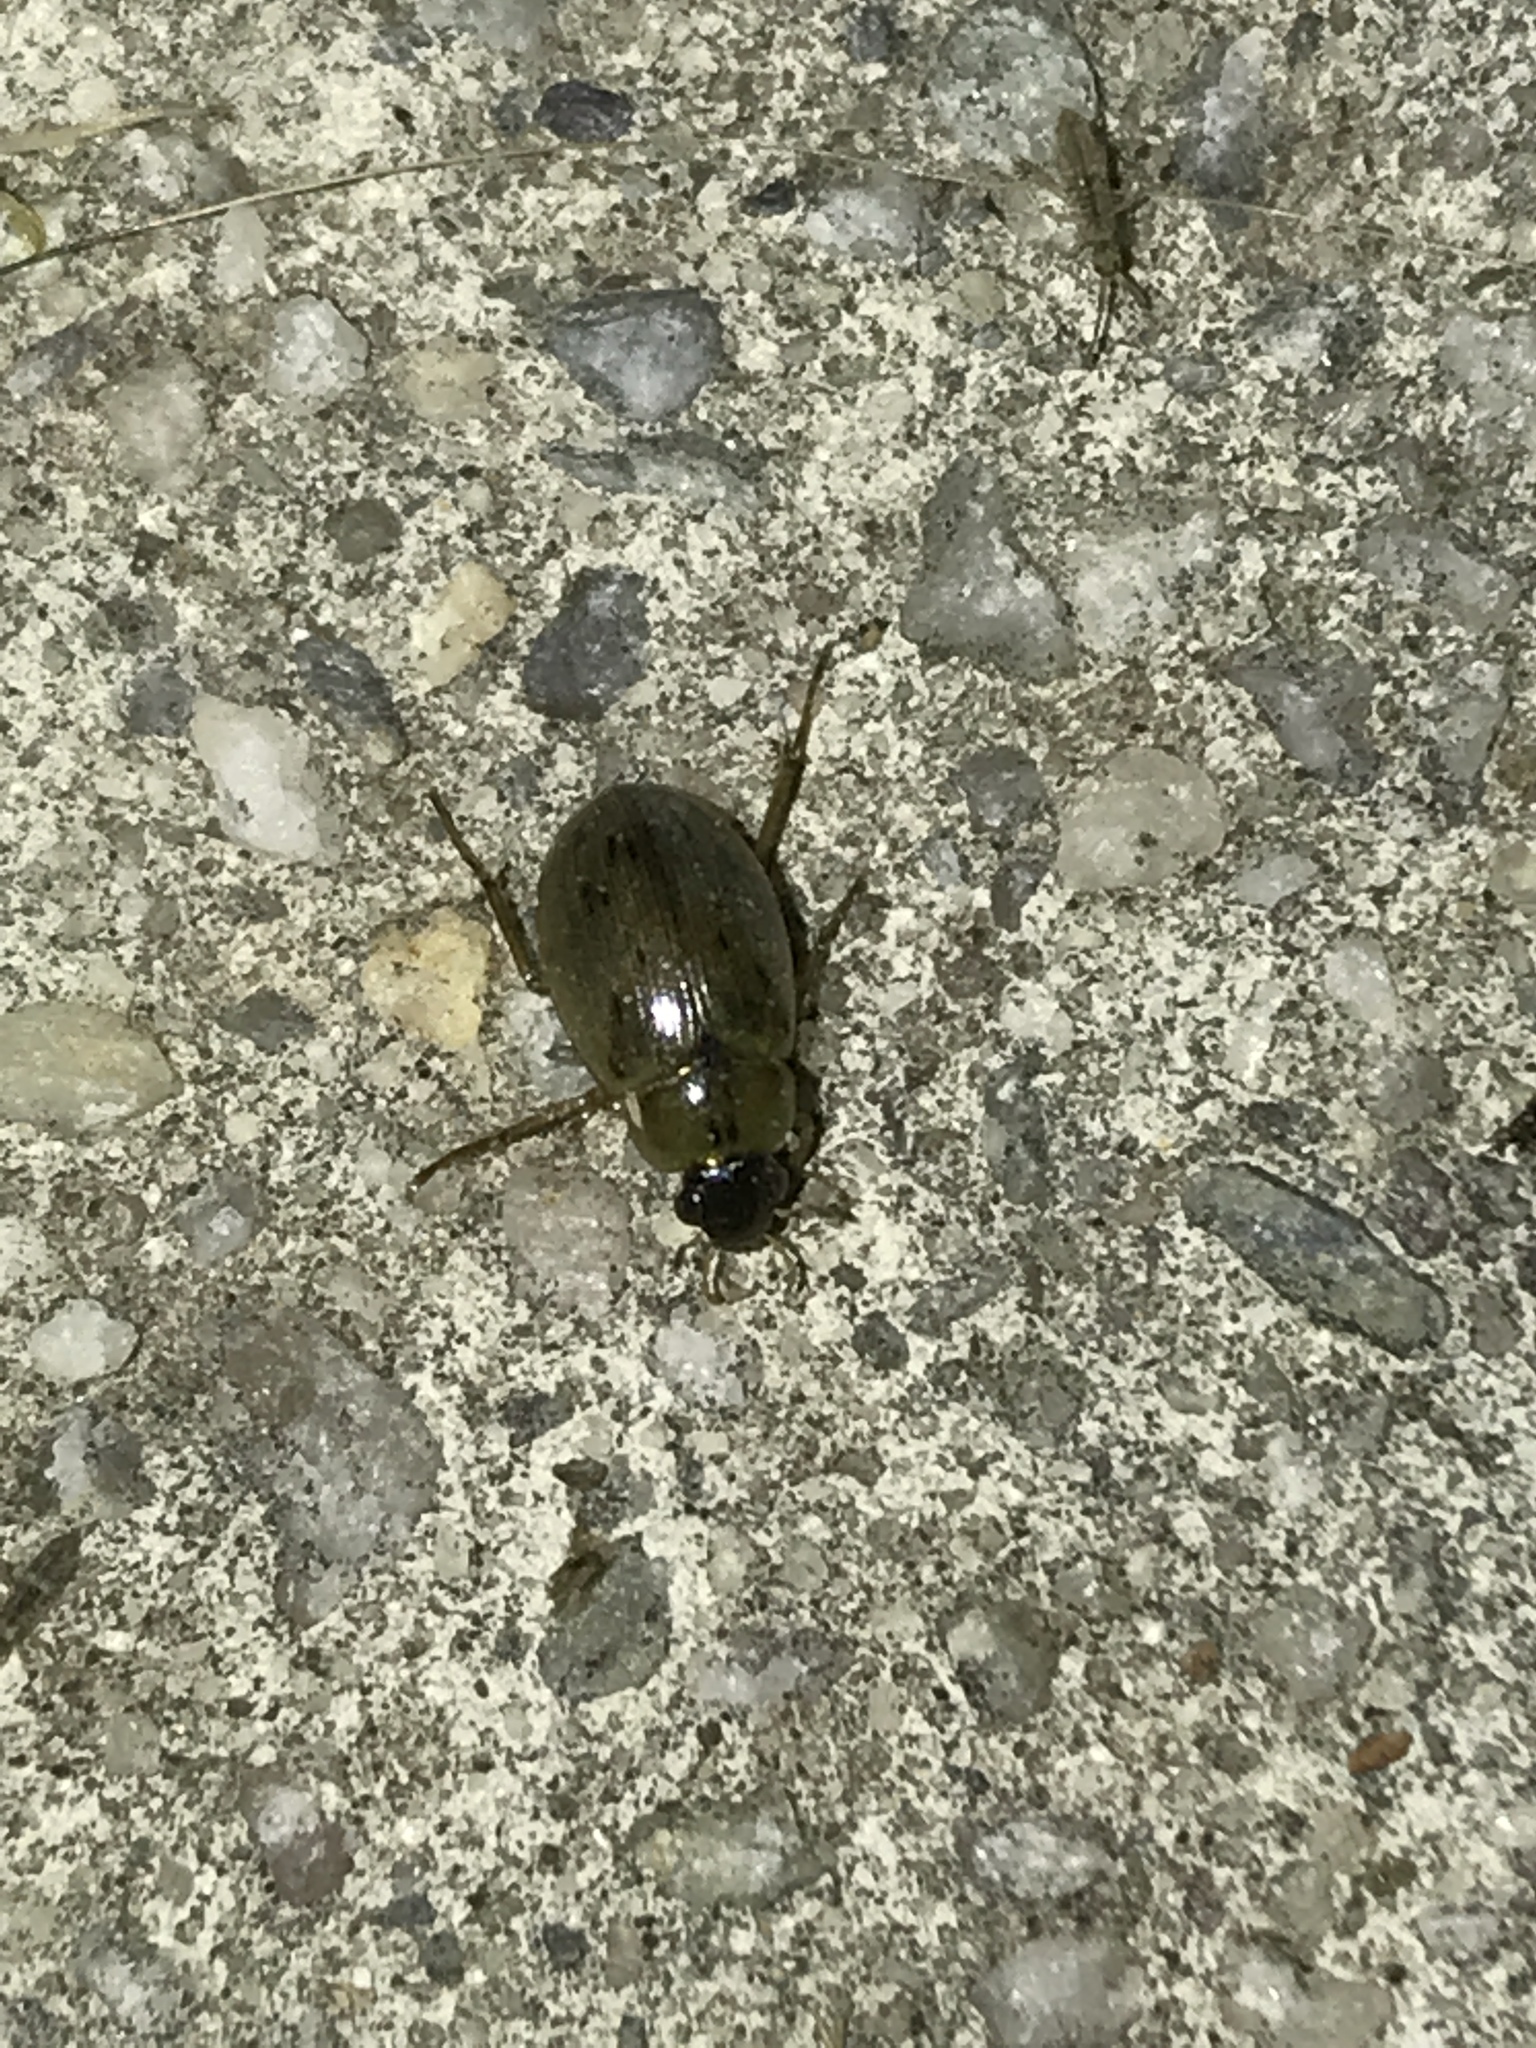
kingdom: Animalia
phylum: Arthropoda
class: Insecta
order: Coleoptera
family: Hydrophilidae
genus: Berosus
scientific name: Berosus
